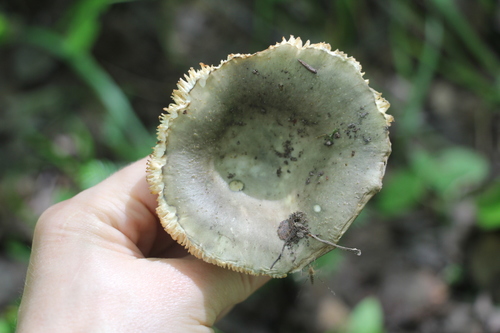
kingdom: Fungi
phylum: Basidiomycota
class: Agaricomycetes
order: Russulales
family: Russulaceae
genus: Russula
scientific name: Russula vesca
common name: Bare-toothed russula
